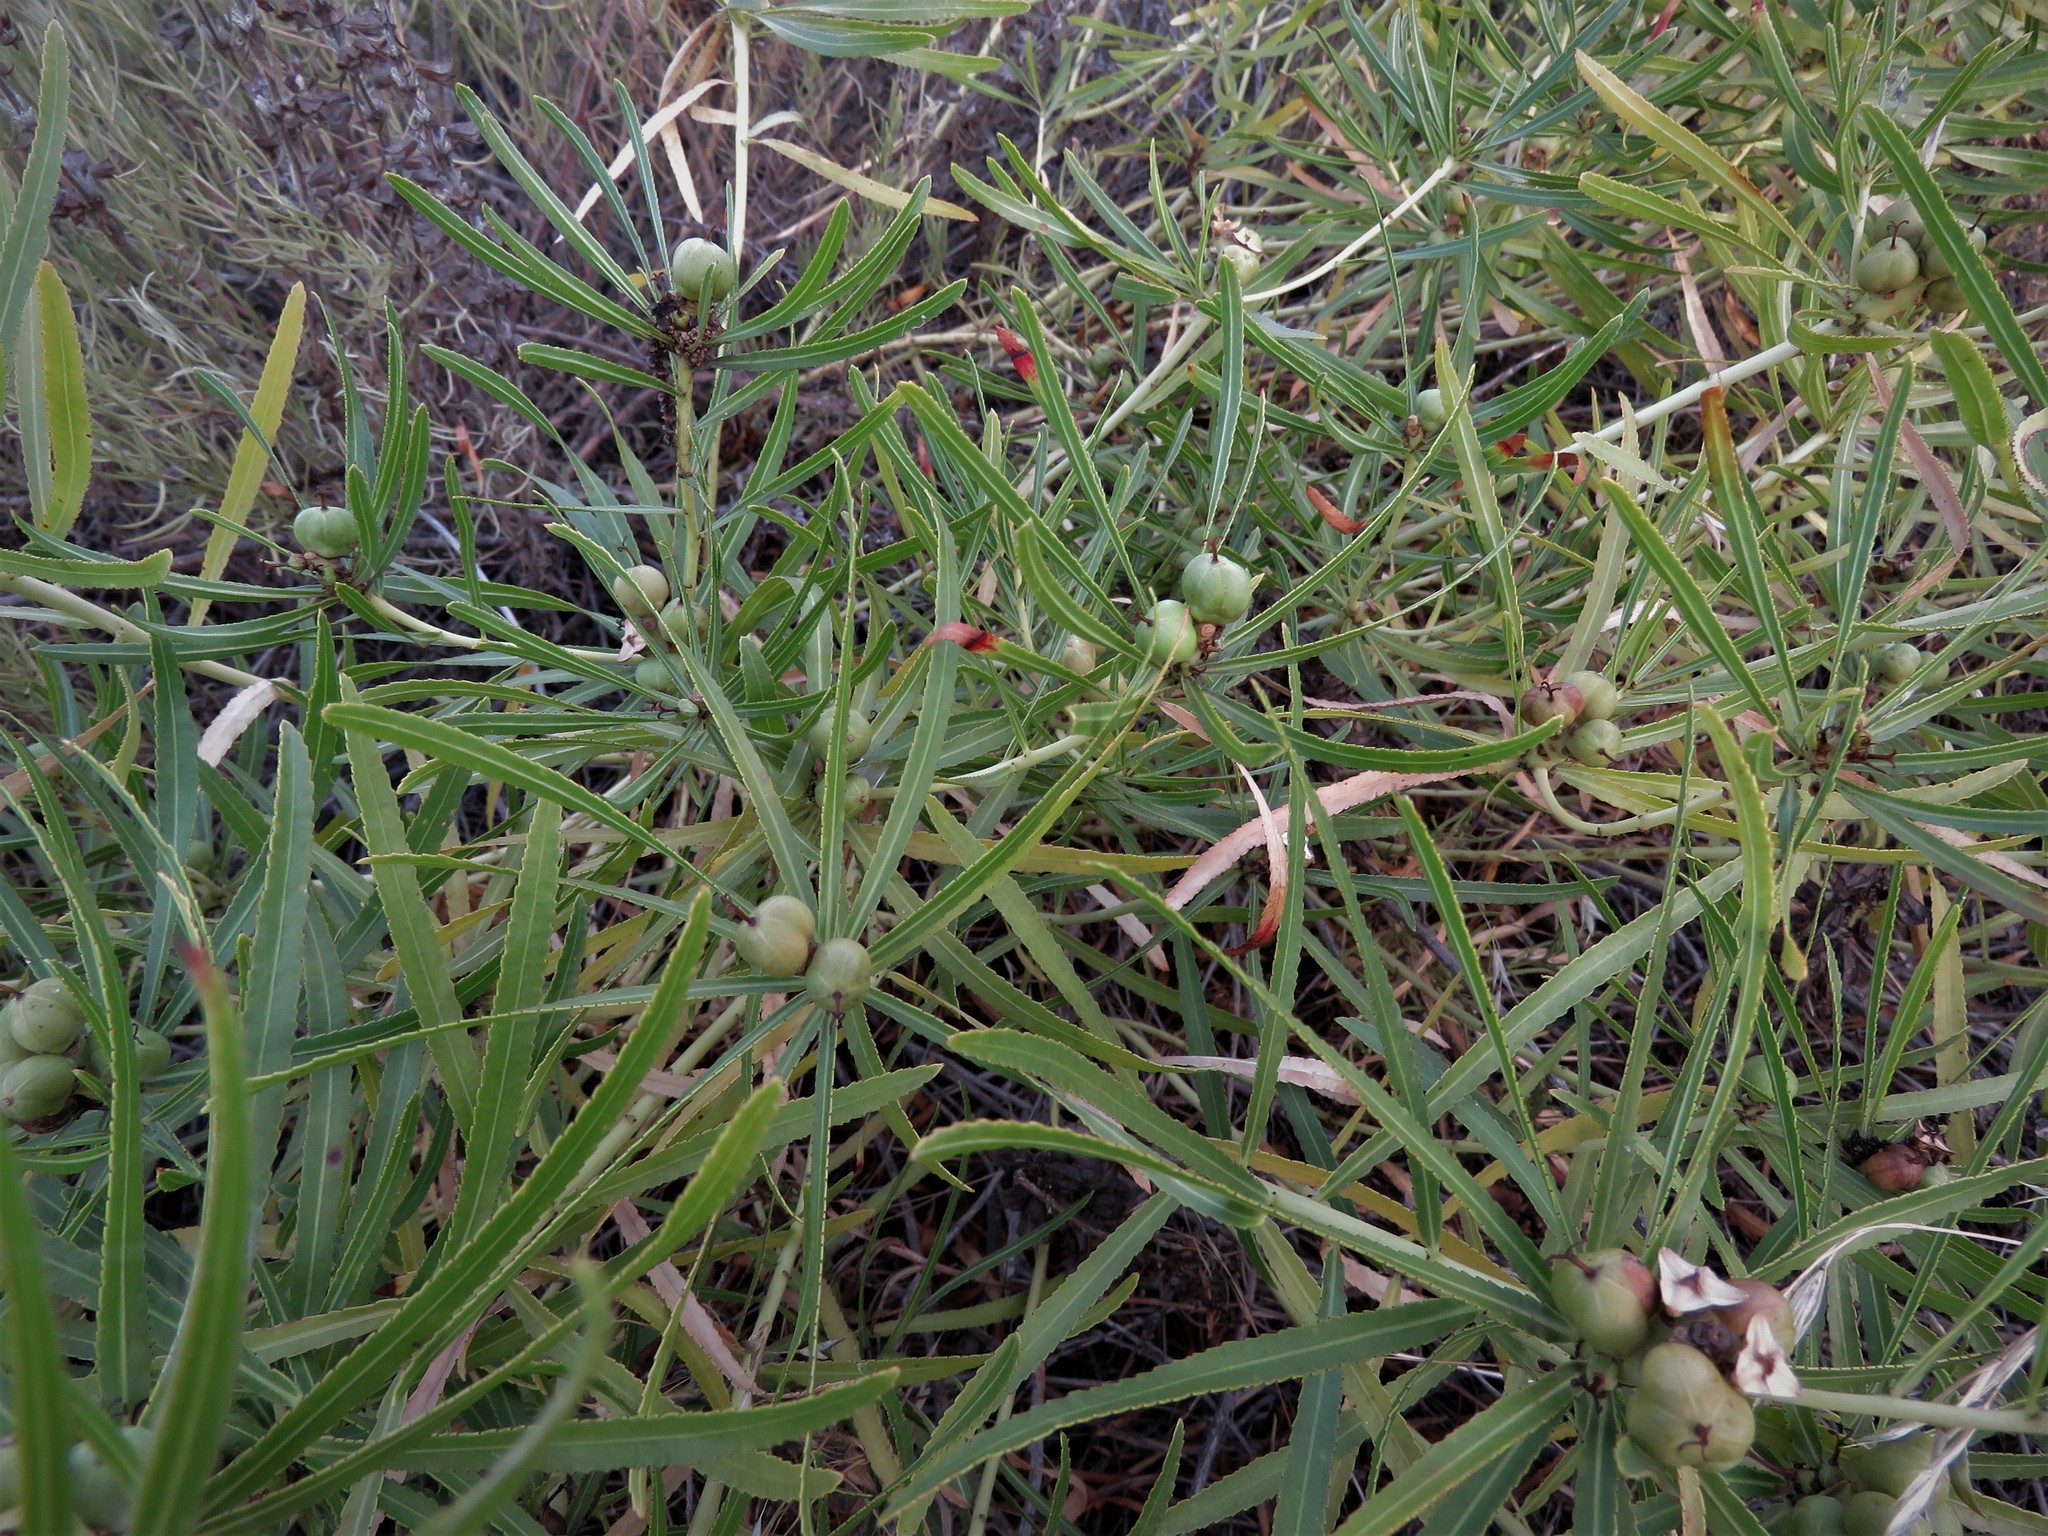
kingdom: Plantae
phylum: Tracheophyta
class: Magnoliopsida
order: Malpighiales
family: Euphorbiaceae
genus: Stillingia
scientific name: Stillingia texana
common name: Texas stillingia
